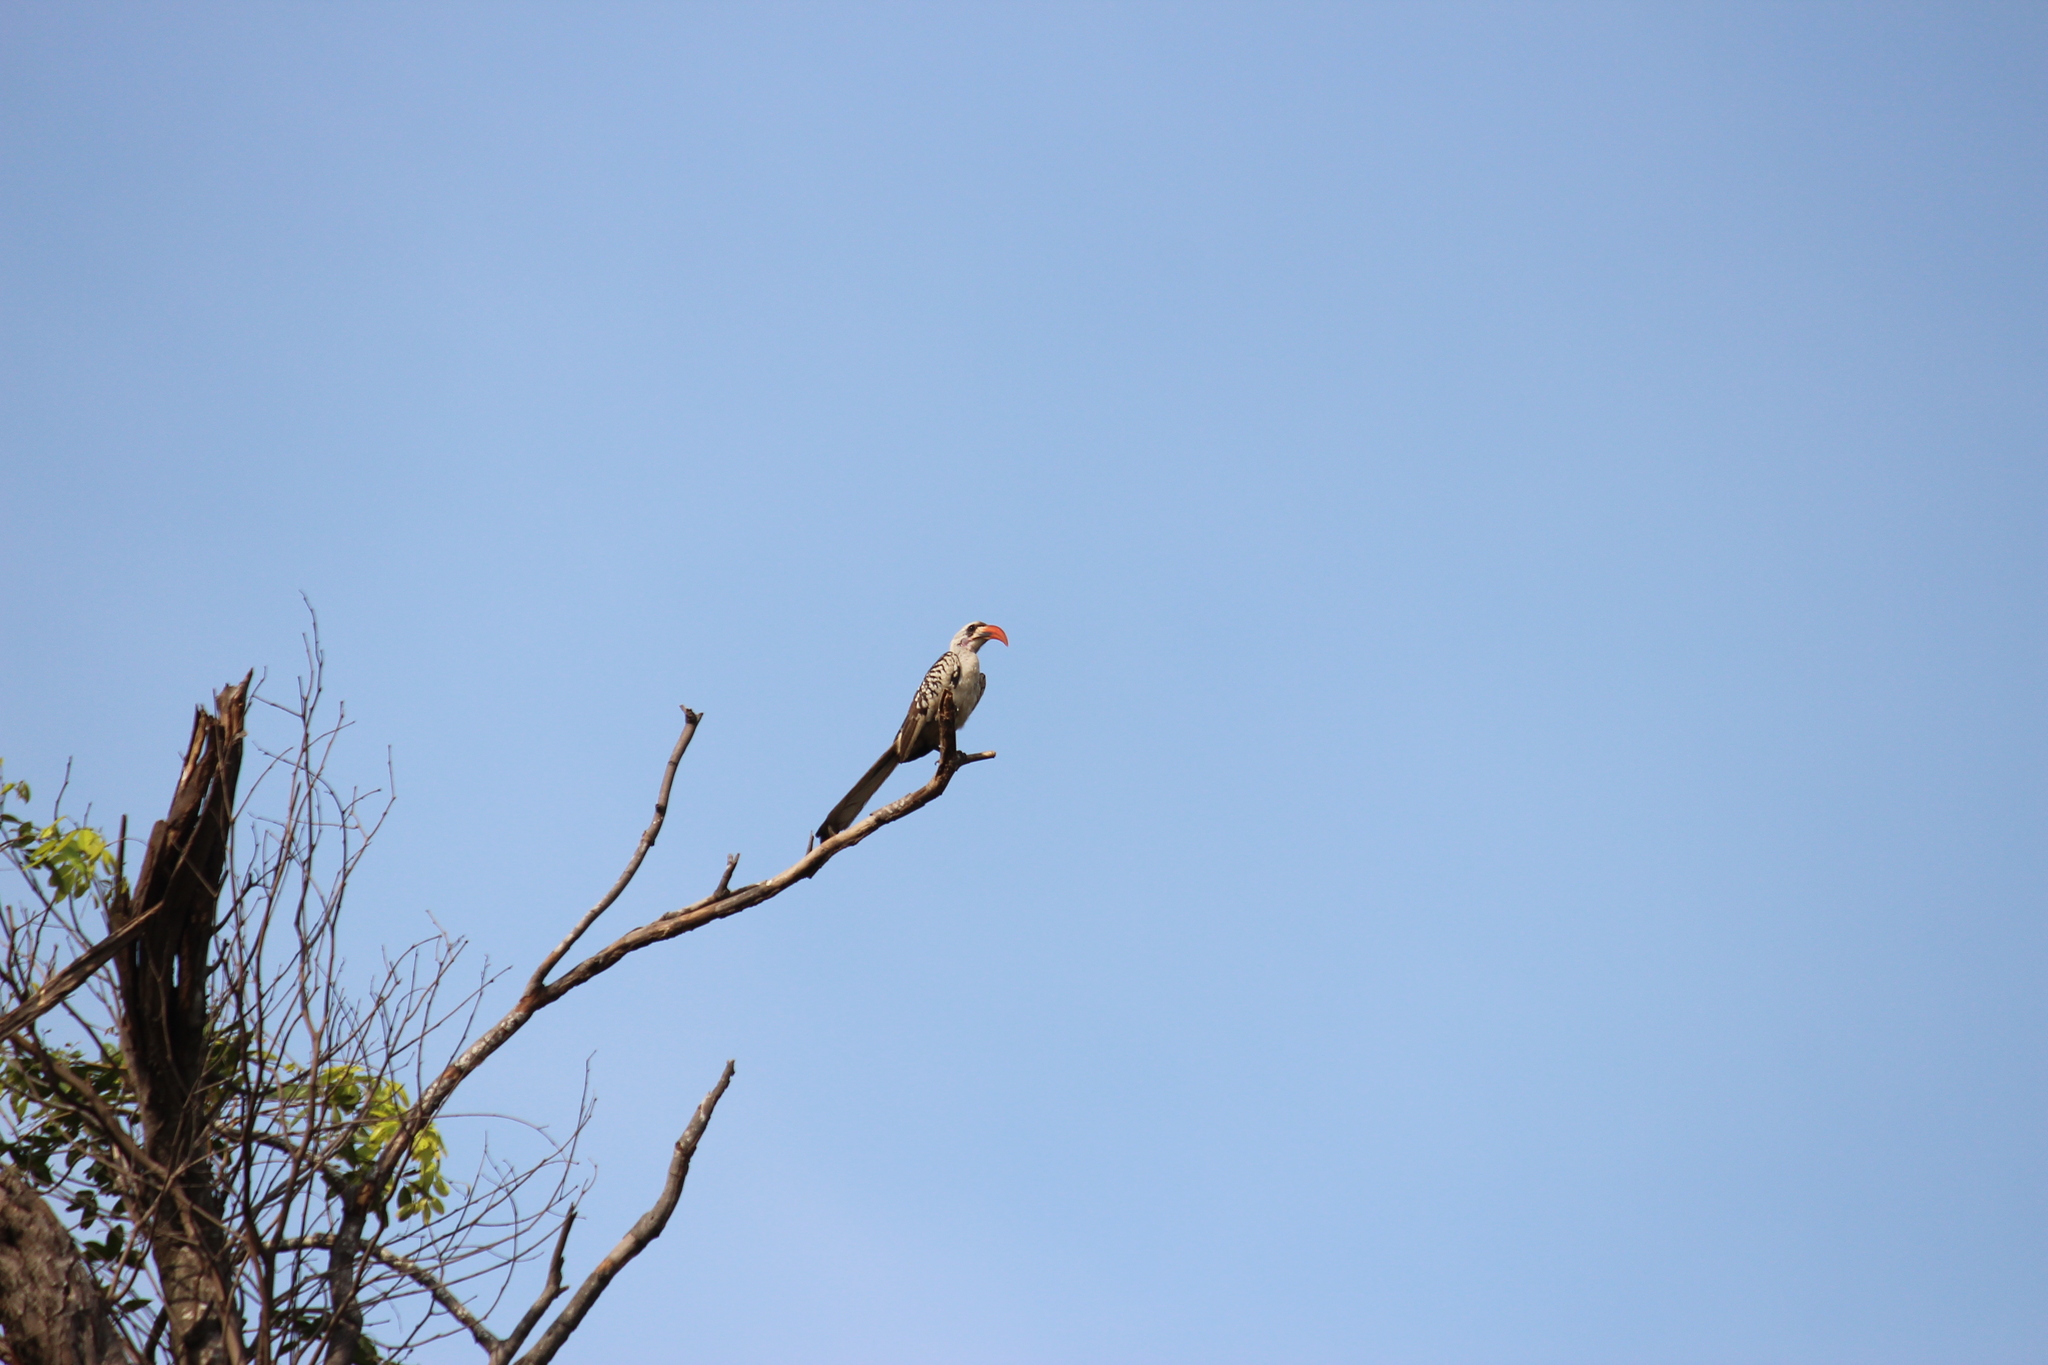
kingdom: Animalia
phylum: Chordata
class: Aves
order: Bucerotiformes
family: Bucerotidae
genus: Tockus
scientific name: Tockus kempi
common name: Western red-billed hornbill
